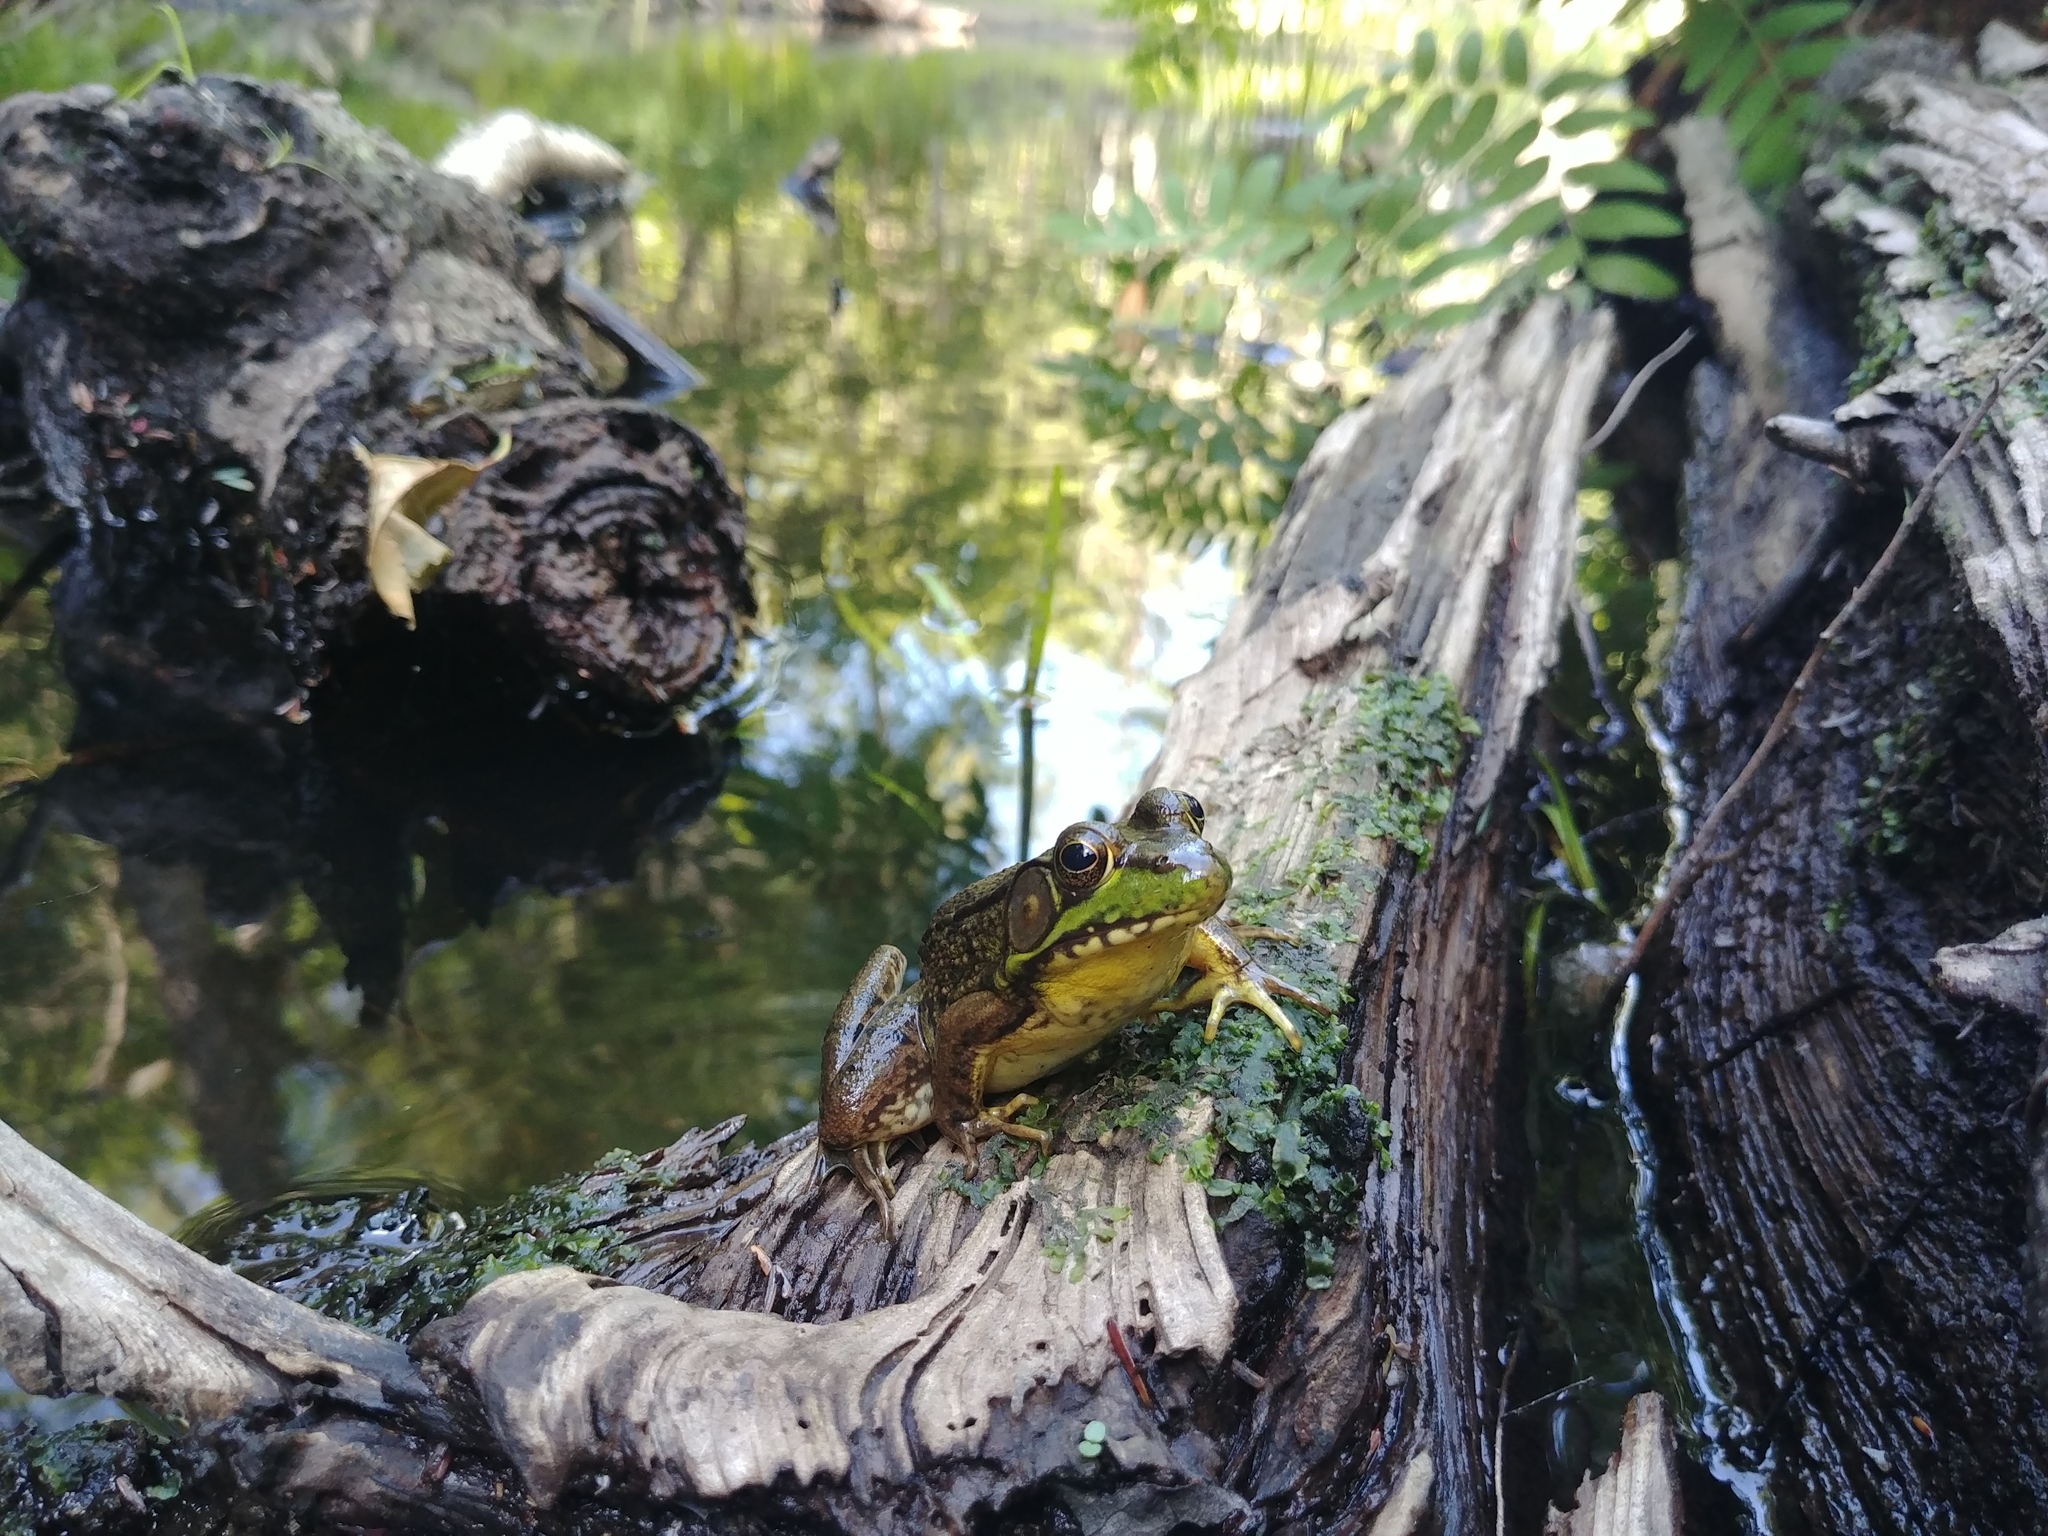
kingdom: Animalia
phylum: Chordata
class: Amphibia
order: Anura
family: Ranidae
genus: Lithobates
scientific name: Lithobates clamitans
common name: Green frog
